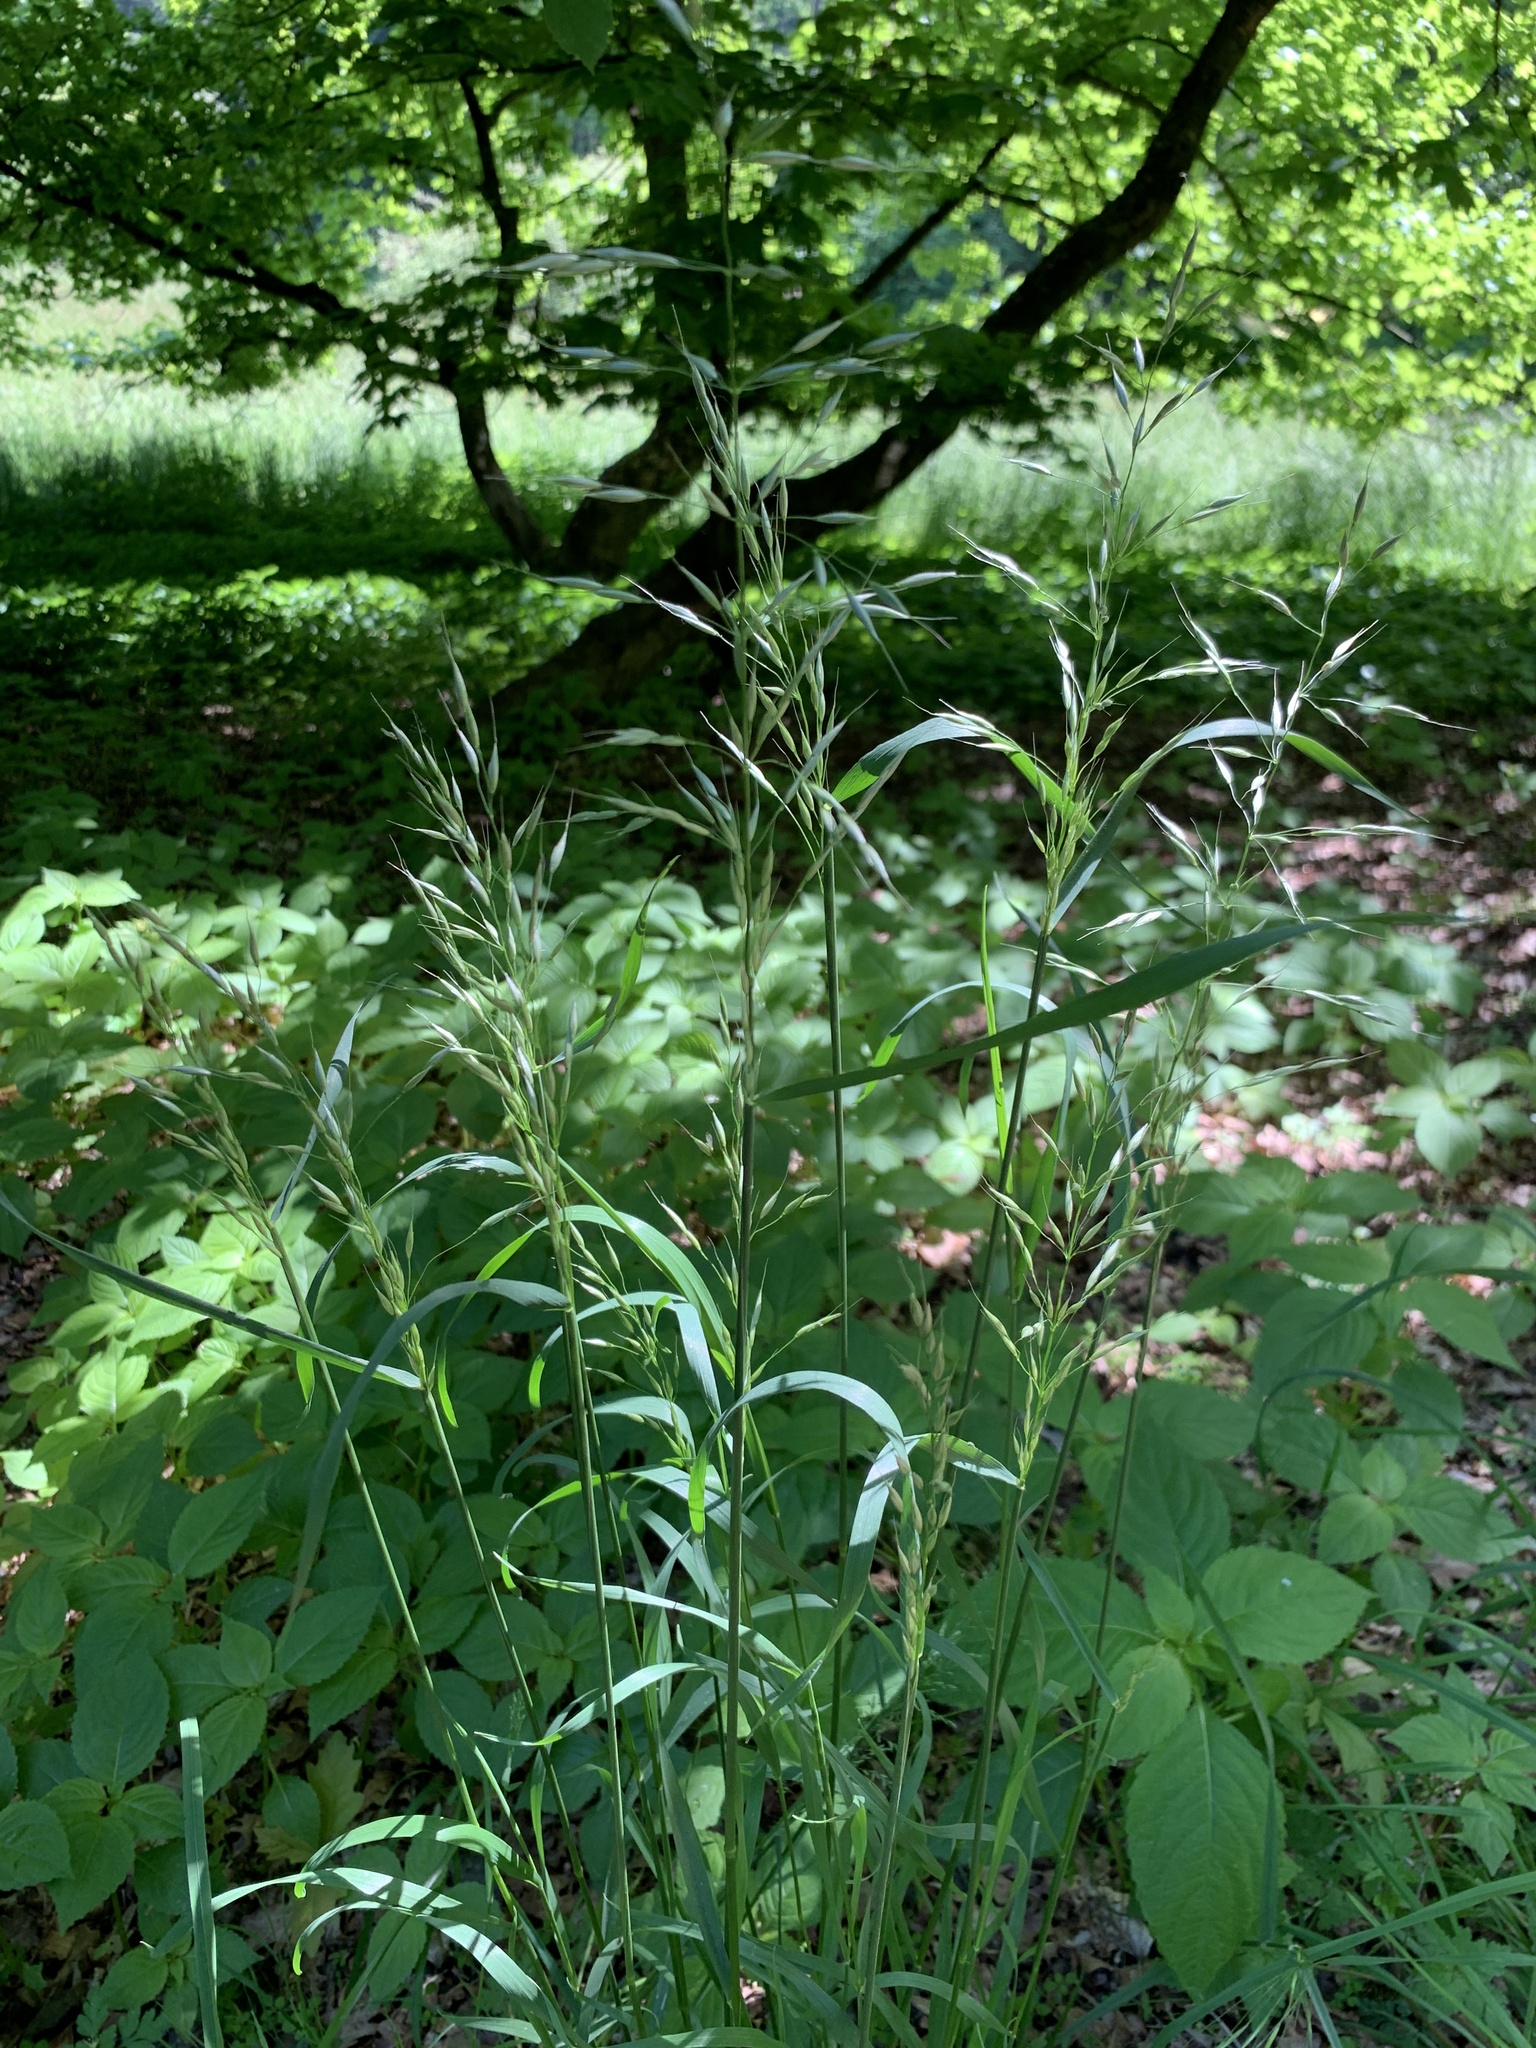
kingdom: Plantae
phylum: Tracheophyta
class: Liliopsida
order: Poales
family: Poaceae
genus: Arrhenatherum
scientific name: Arrhenatherum elatius
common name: Tall oatgrass
